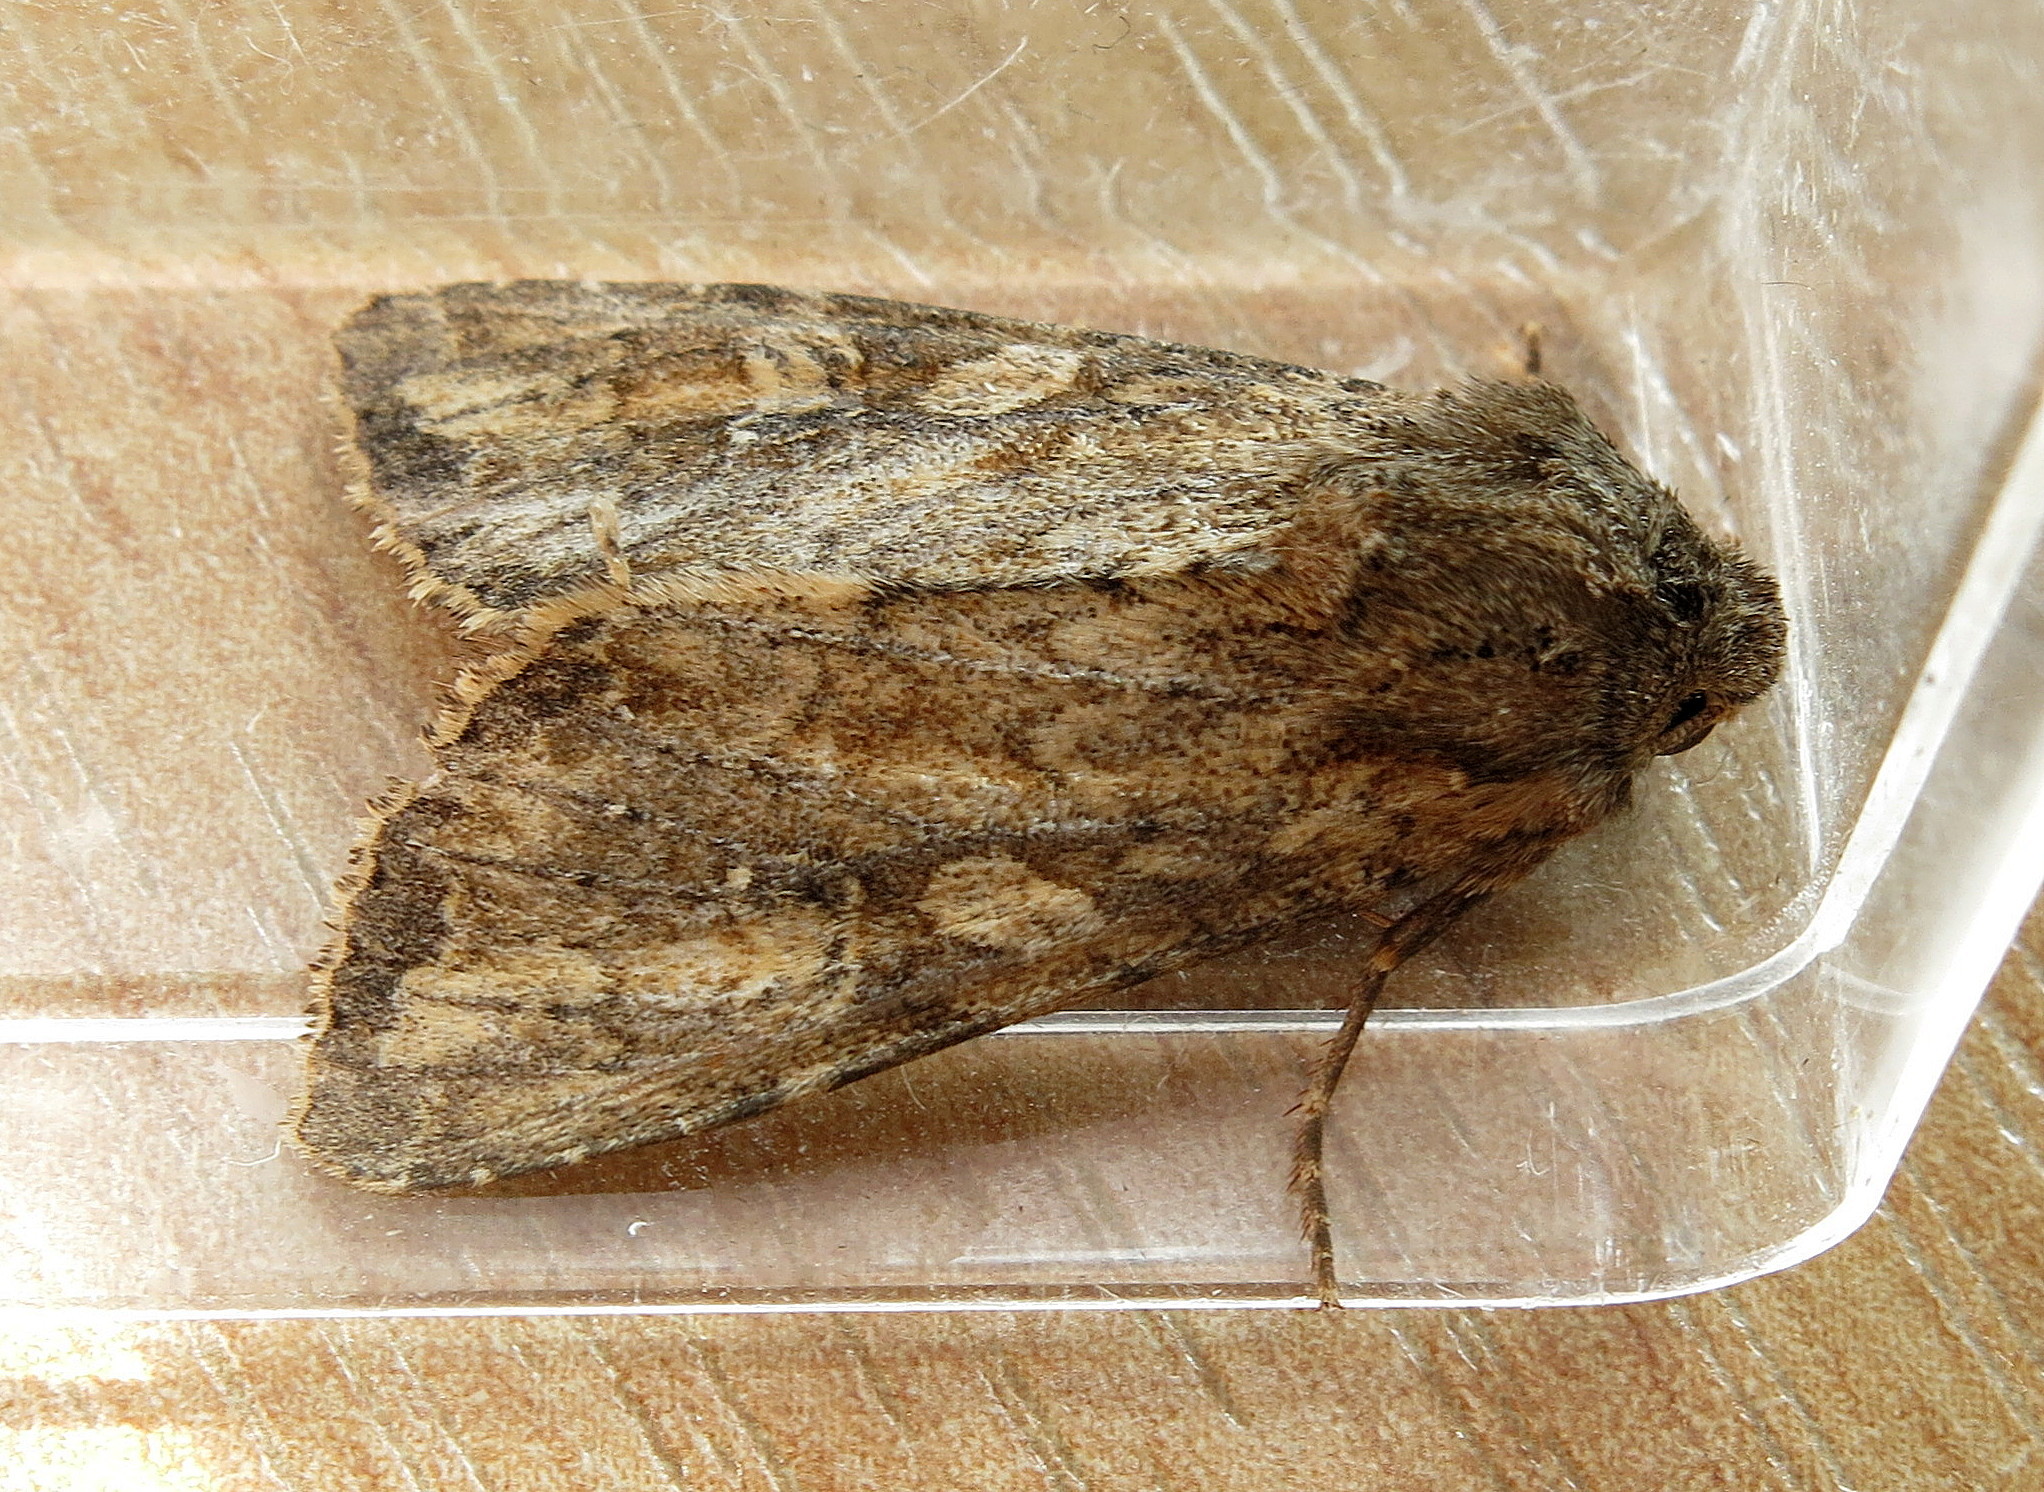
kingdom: Animalia
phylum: Arthropoda
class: Insecta
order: Lepidoptera
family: Noctuidae
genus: Apamea
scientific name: Apamea anceps
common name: Large nutmeg
